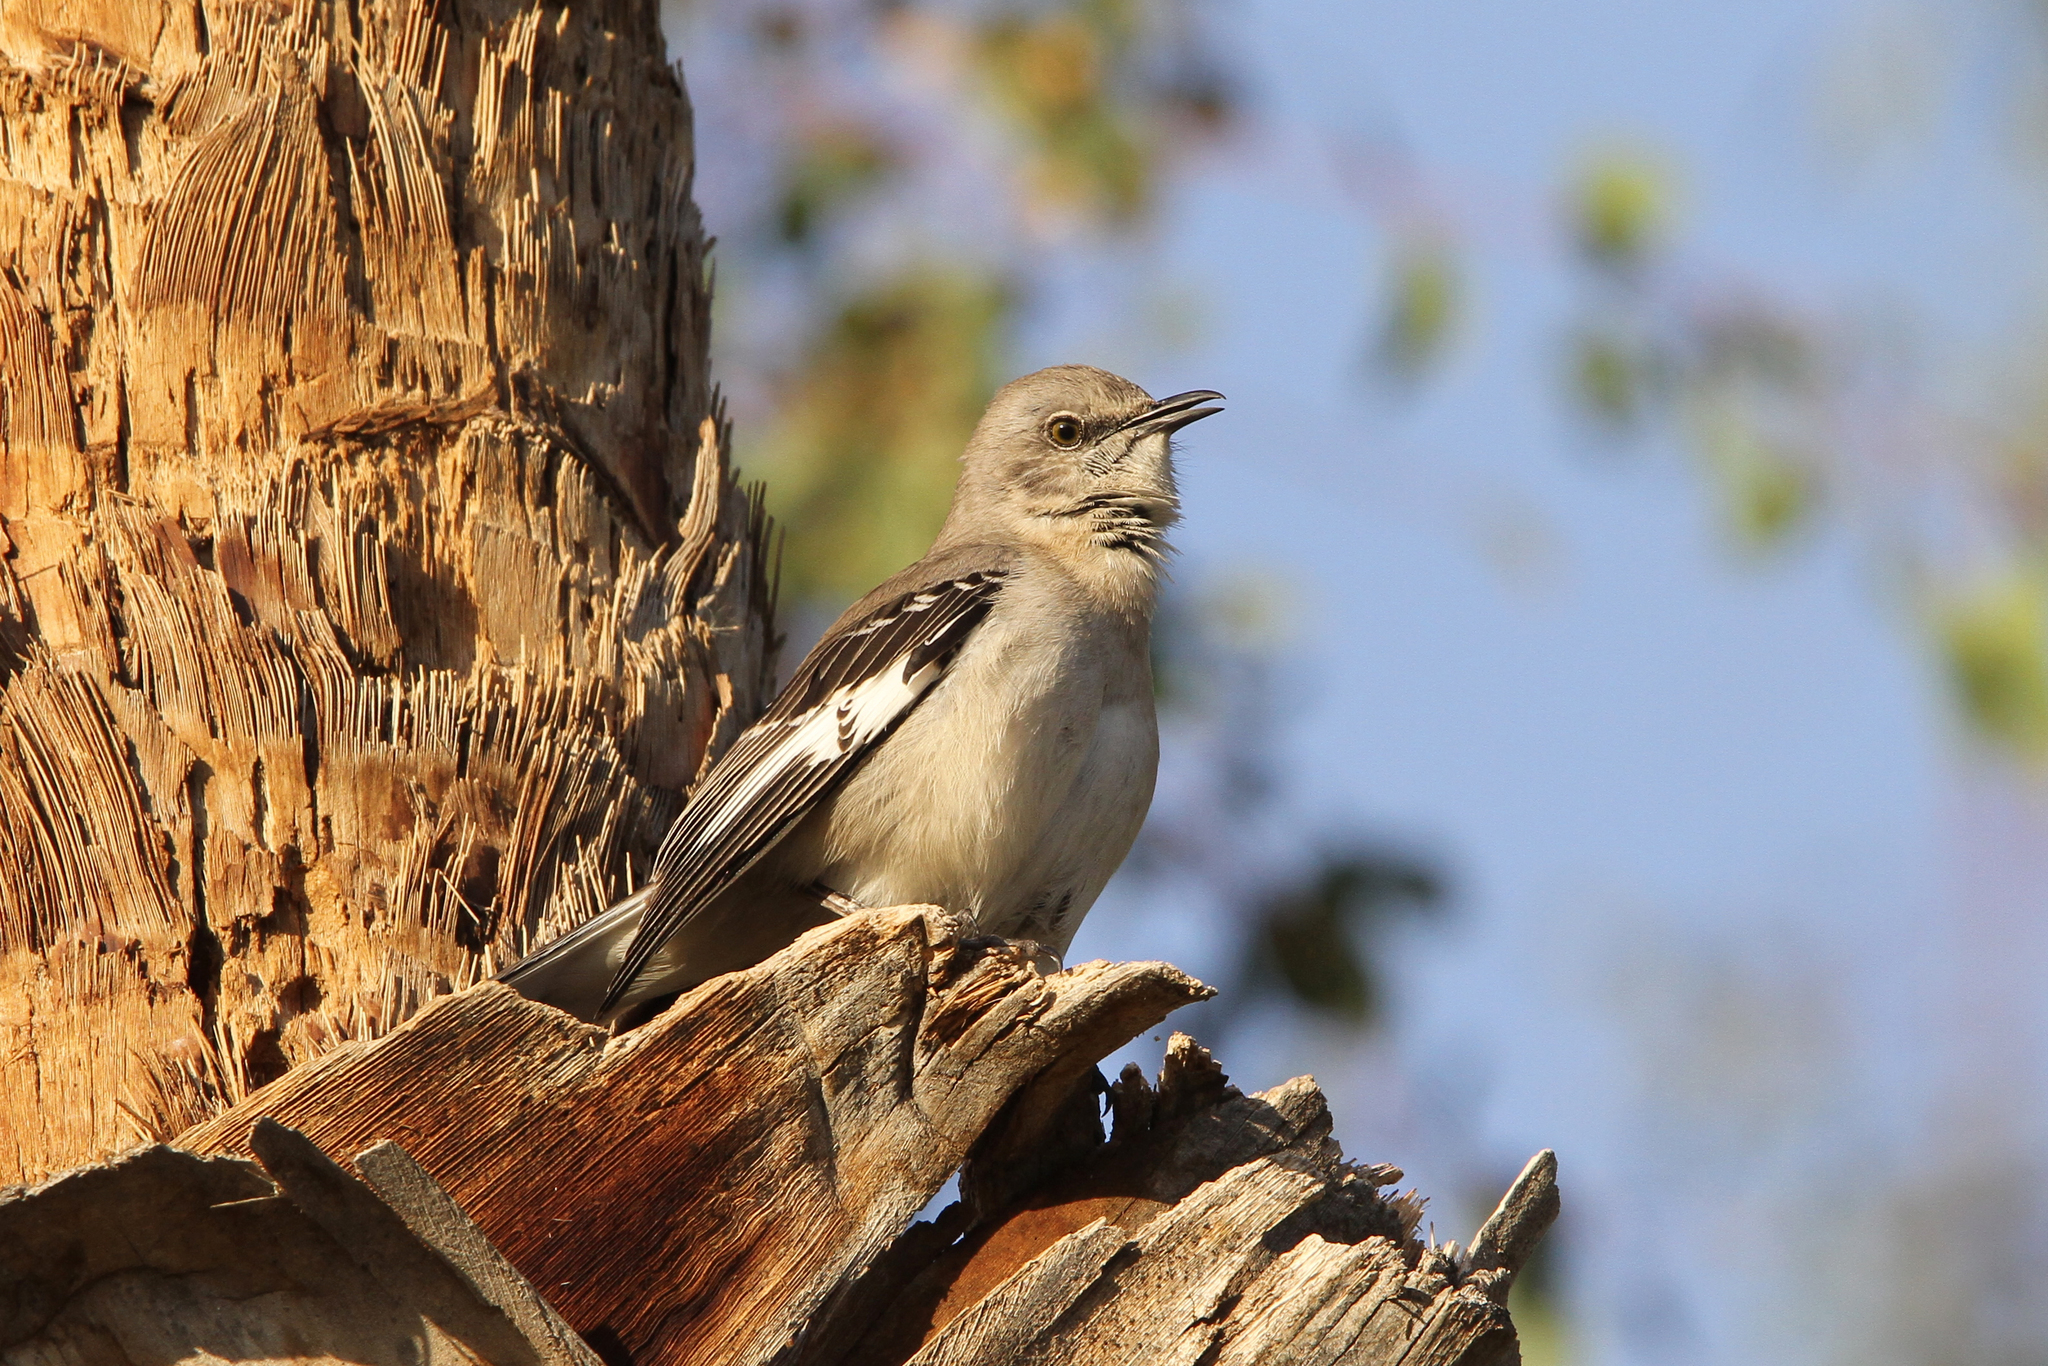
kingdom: Animalia
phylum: Chordata
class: Aves
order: Passeriformes
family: Mimidae
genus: Mimus
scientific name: Mimus polyglottos
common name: Northern mockingbird
